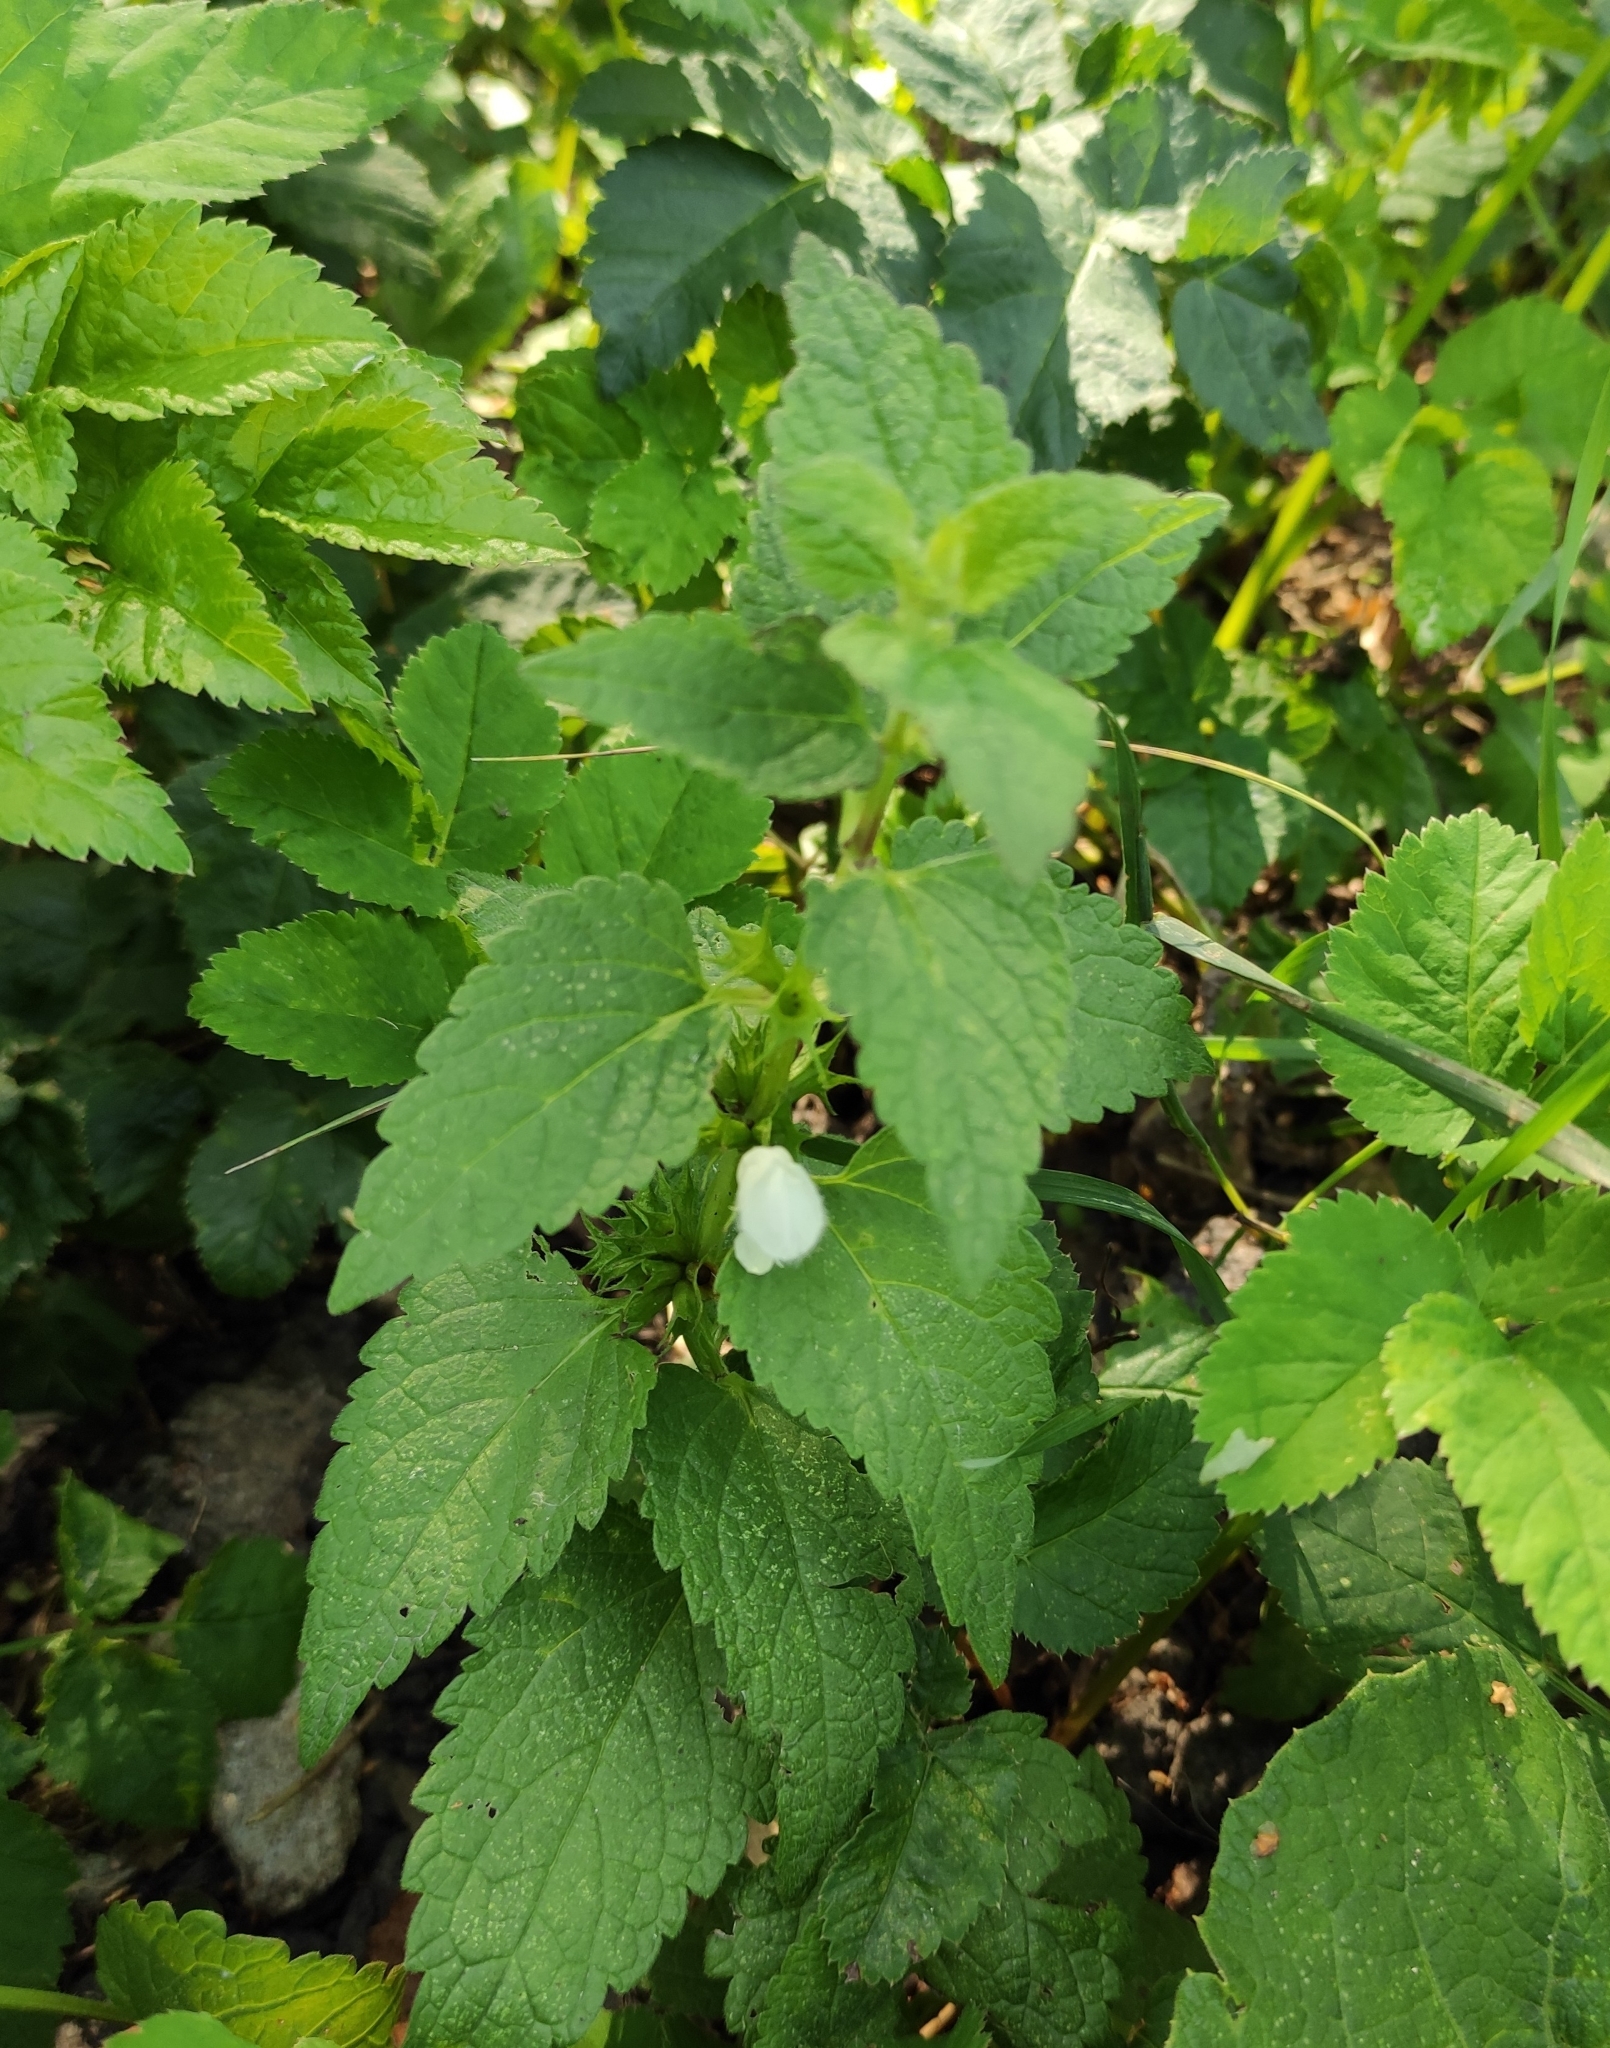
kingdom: Plantae
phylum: Tracheophyta
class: Magnoliopsida
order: Lamiales
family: Lamiaceae
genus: Lamium
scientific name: Lamium album
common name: White dead-nettle
